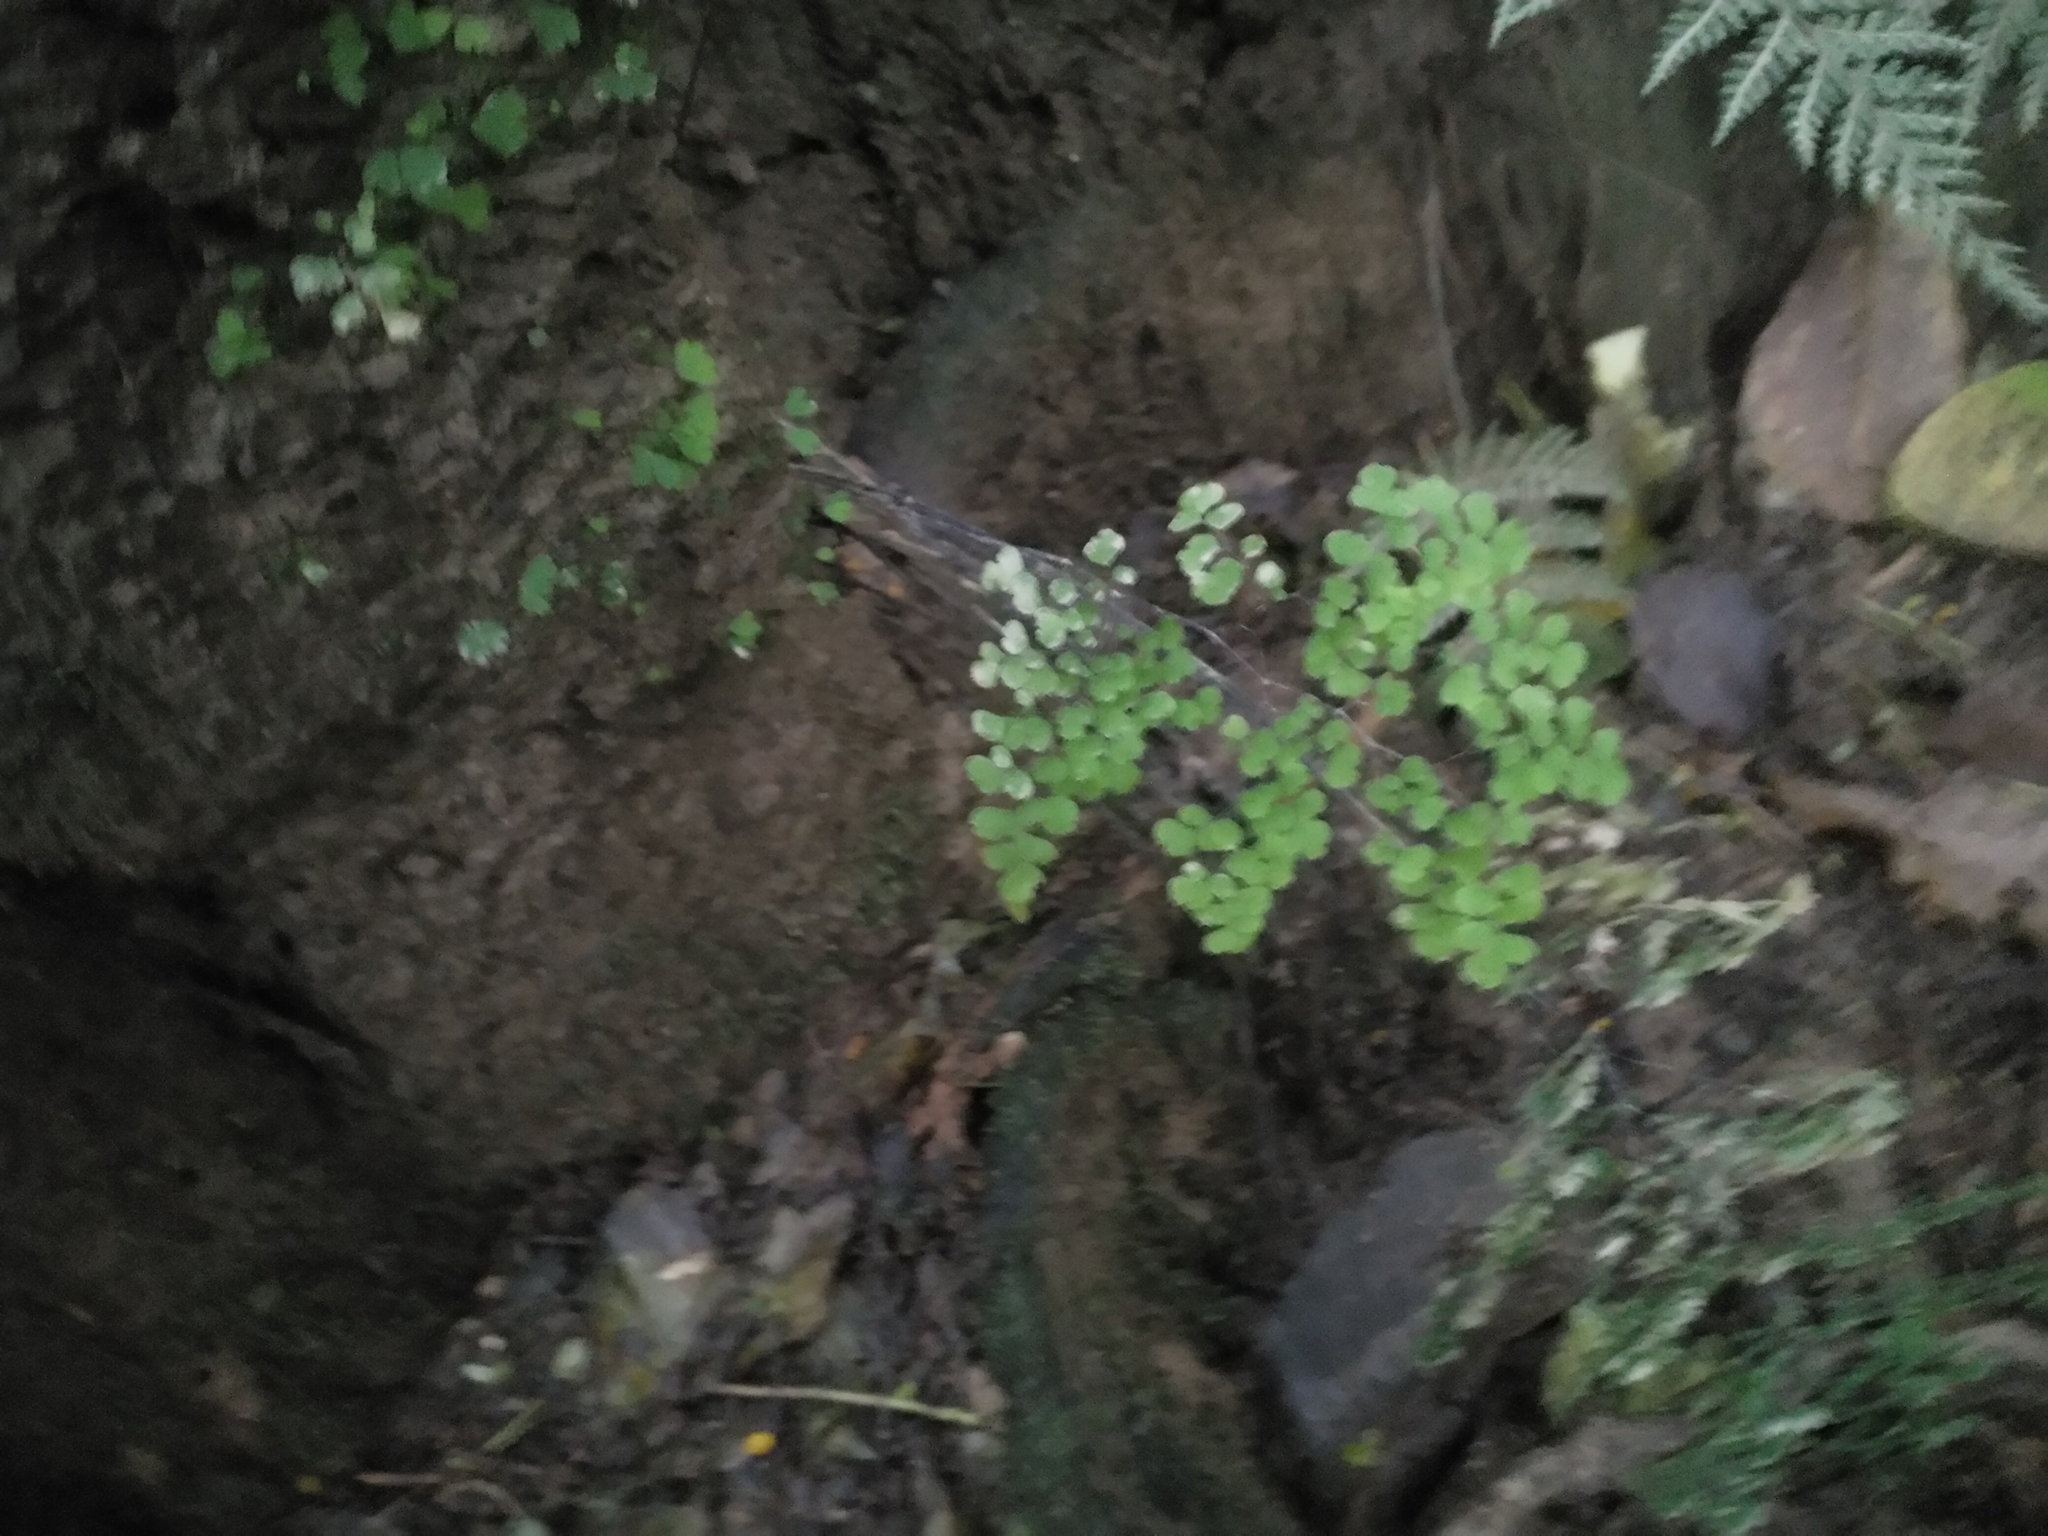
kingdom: Plantae
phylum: Tracheophyta
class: Polypodiopsida
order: Polypodiales
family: Pteridaceae
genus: Adiantum
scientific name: Adiantum raddianum
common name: Delta maidenhair fern
